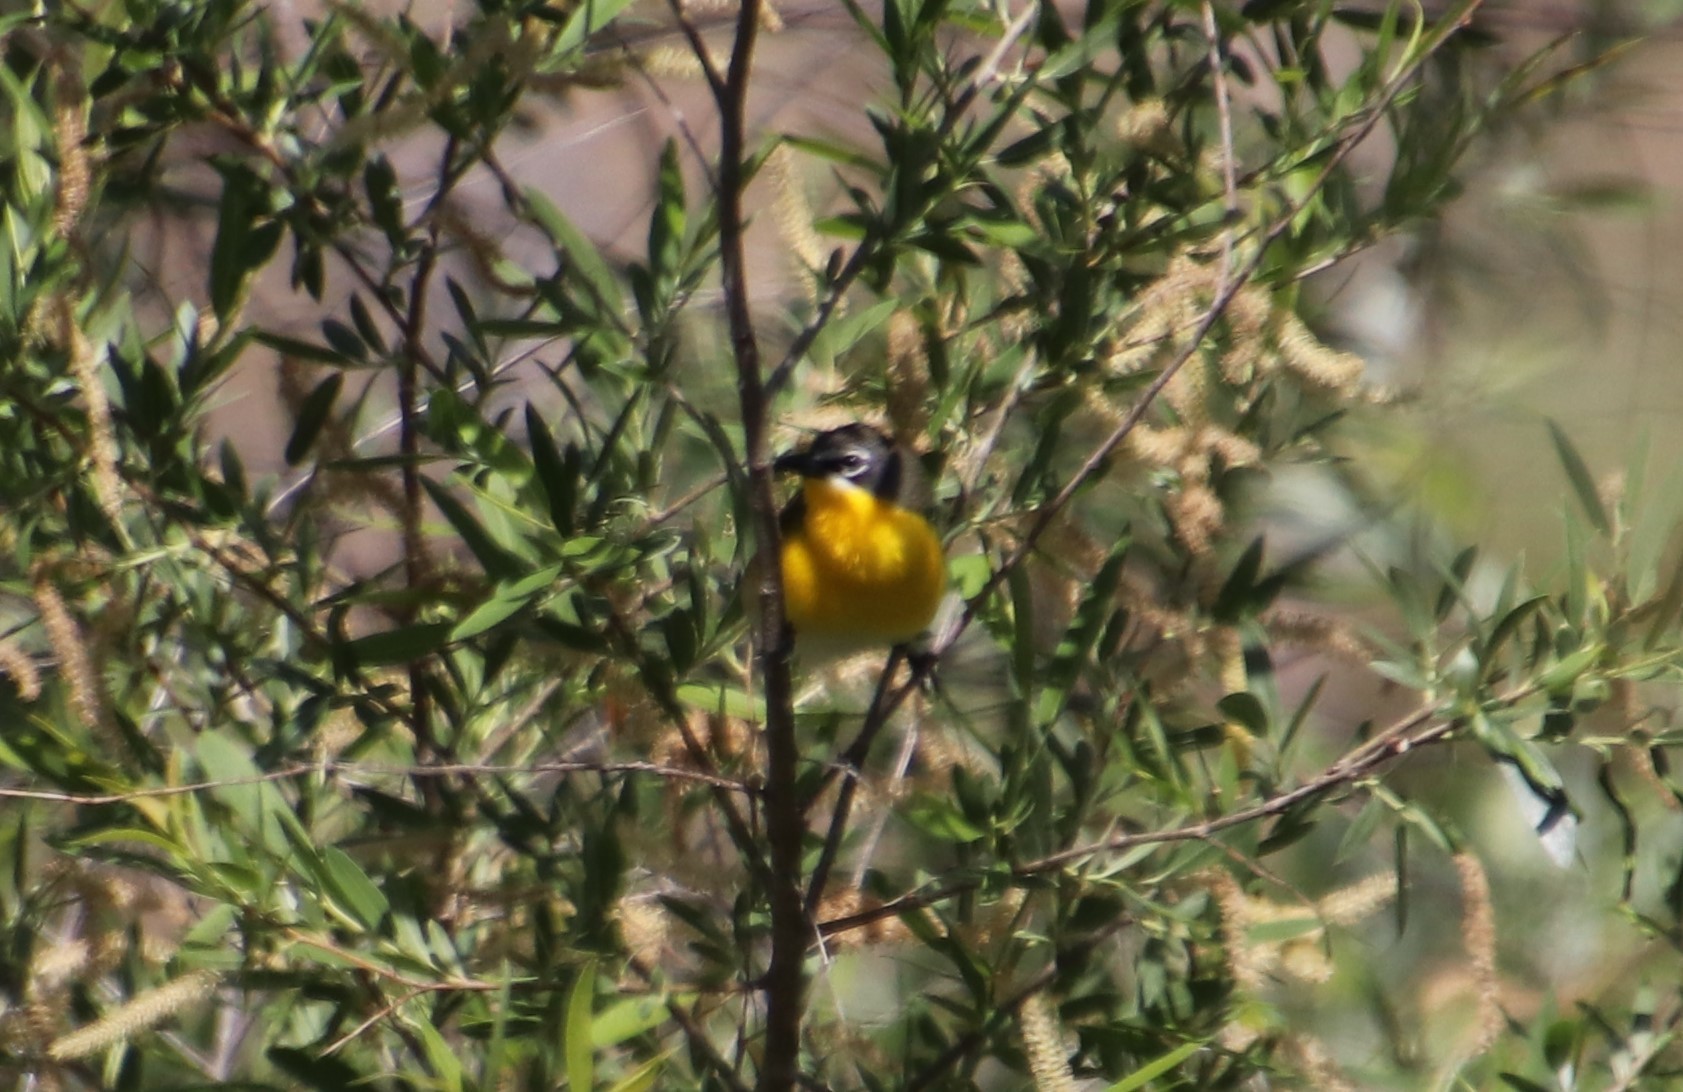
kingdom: Animalia
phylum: Chordata
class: Aves
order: Passeriformes
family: Parulidae
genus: Icteria
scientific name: Icteria virens
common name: Yellow-breasted chat
